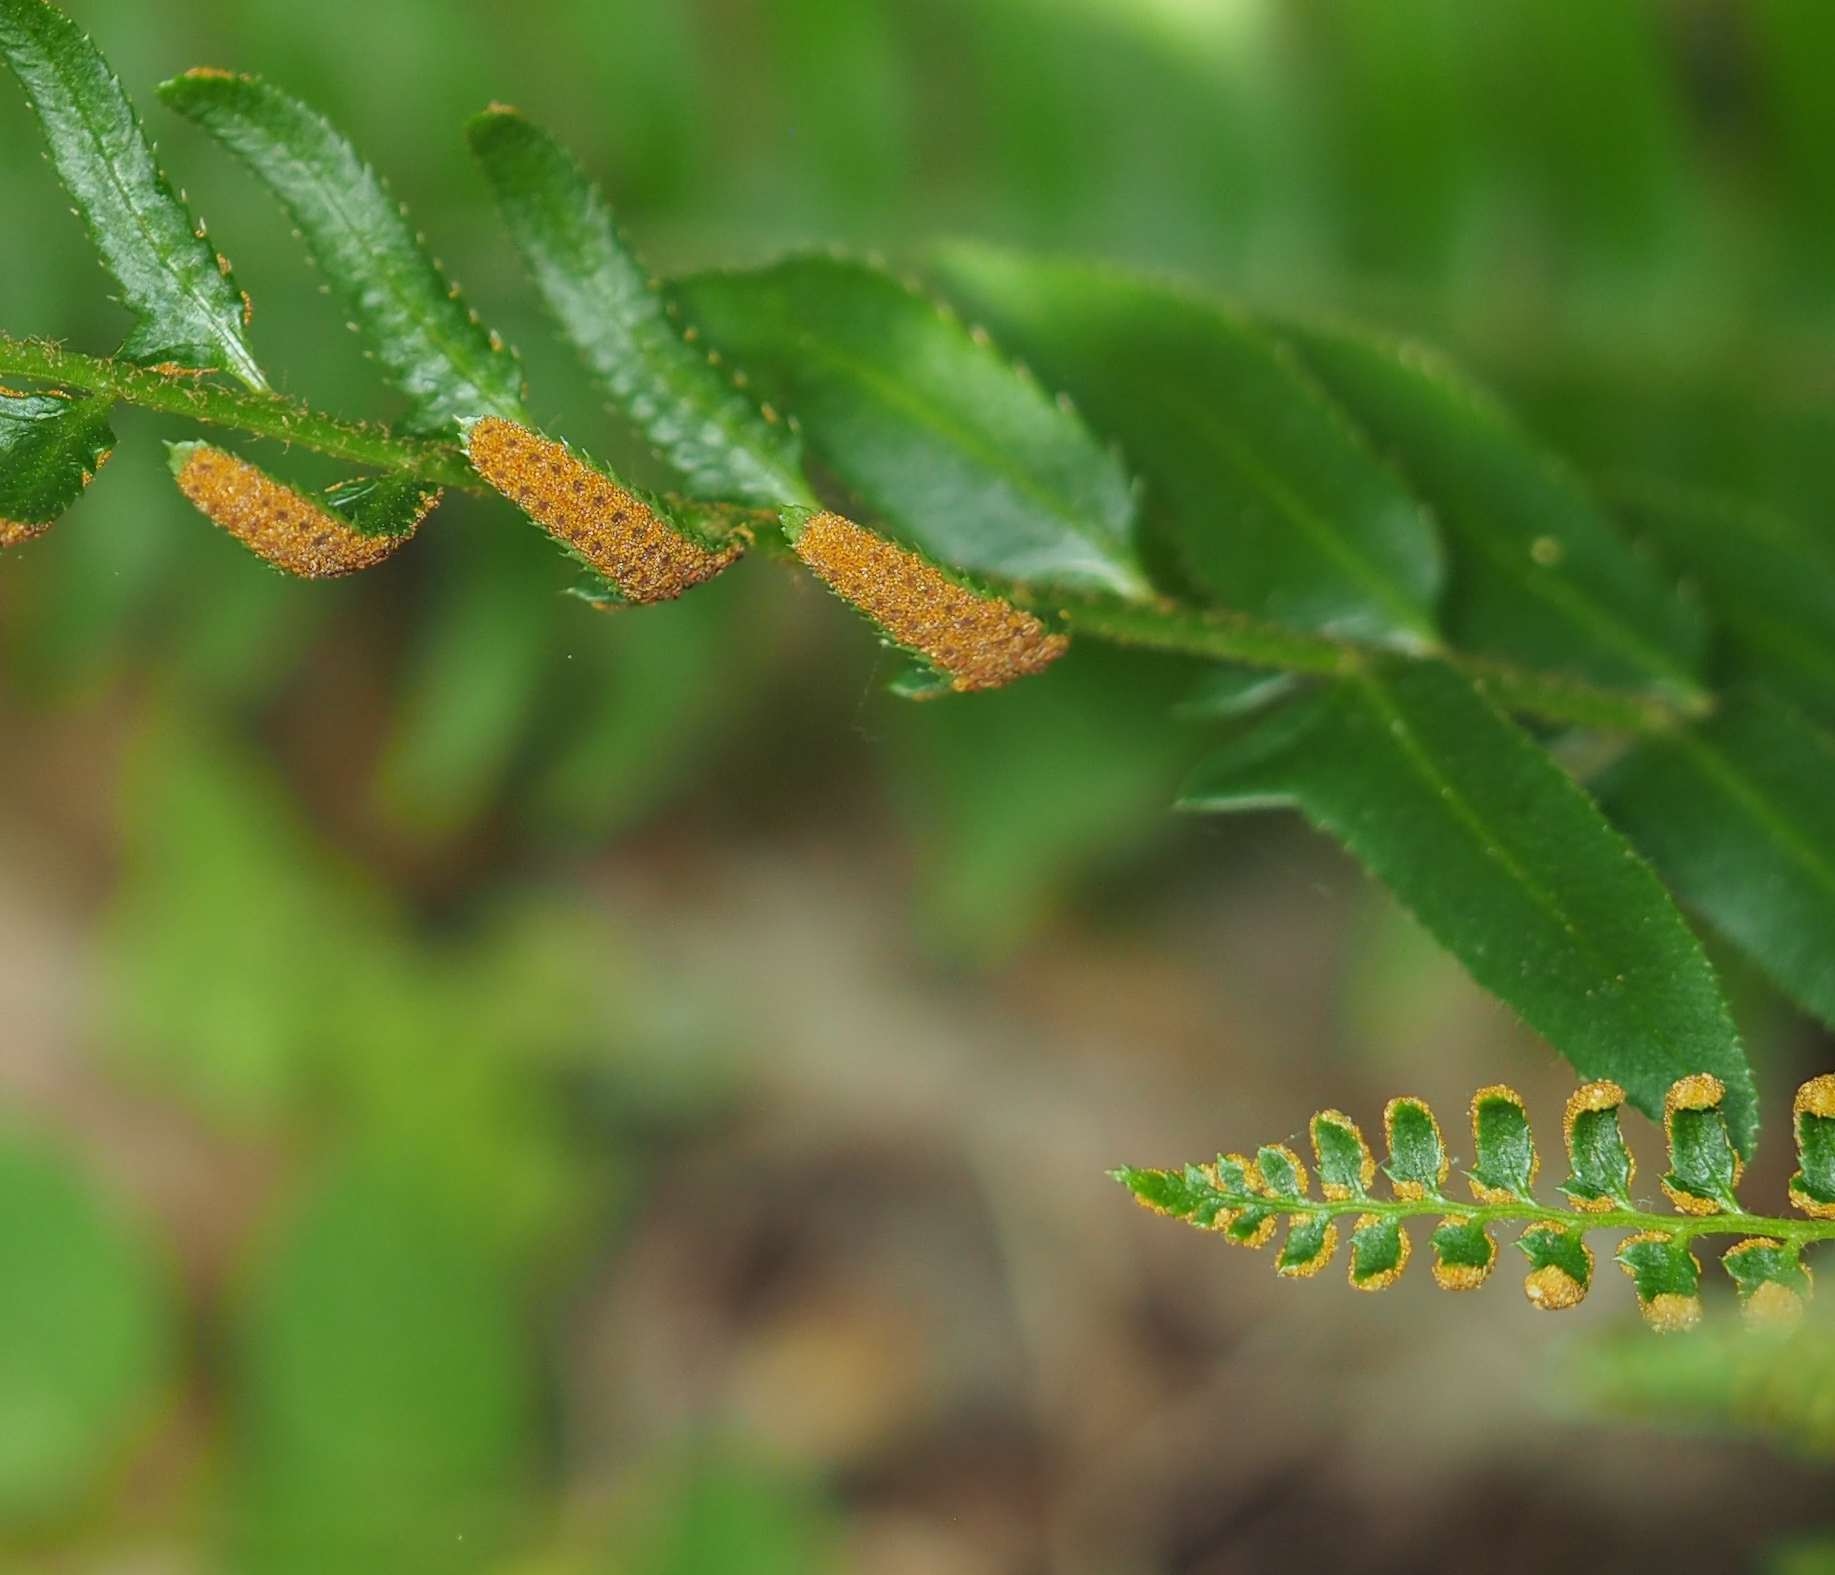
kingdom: Plantae
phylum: Tracheophyta
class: Polypodiopsida
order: Polypodiales
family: Dryopteridaceae
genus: Polystichum
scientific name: Polystichum acrostichoides
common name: Christmas fern
